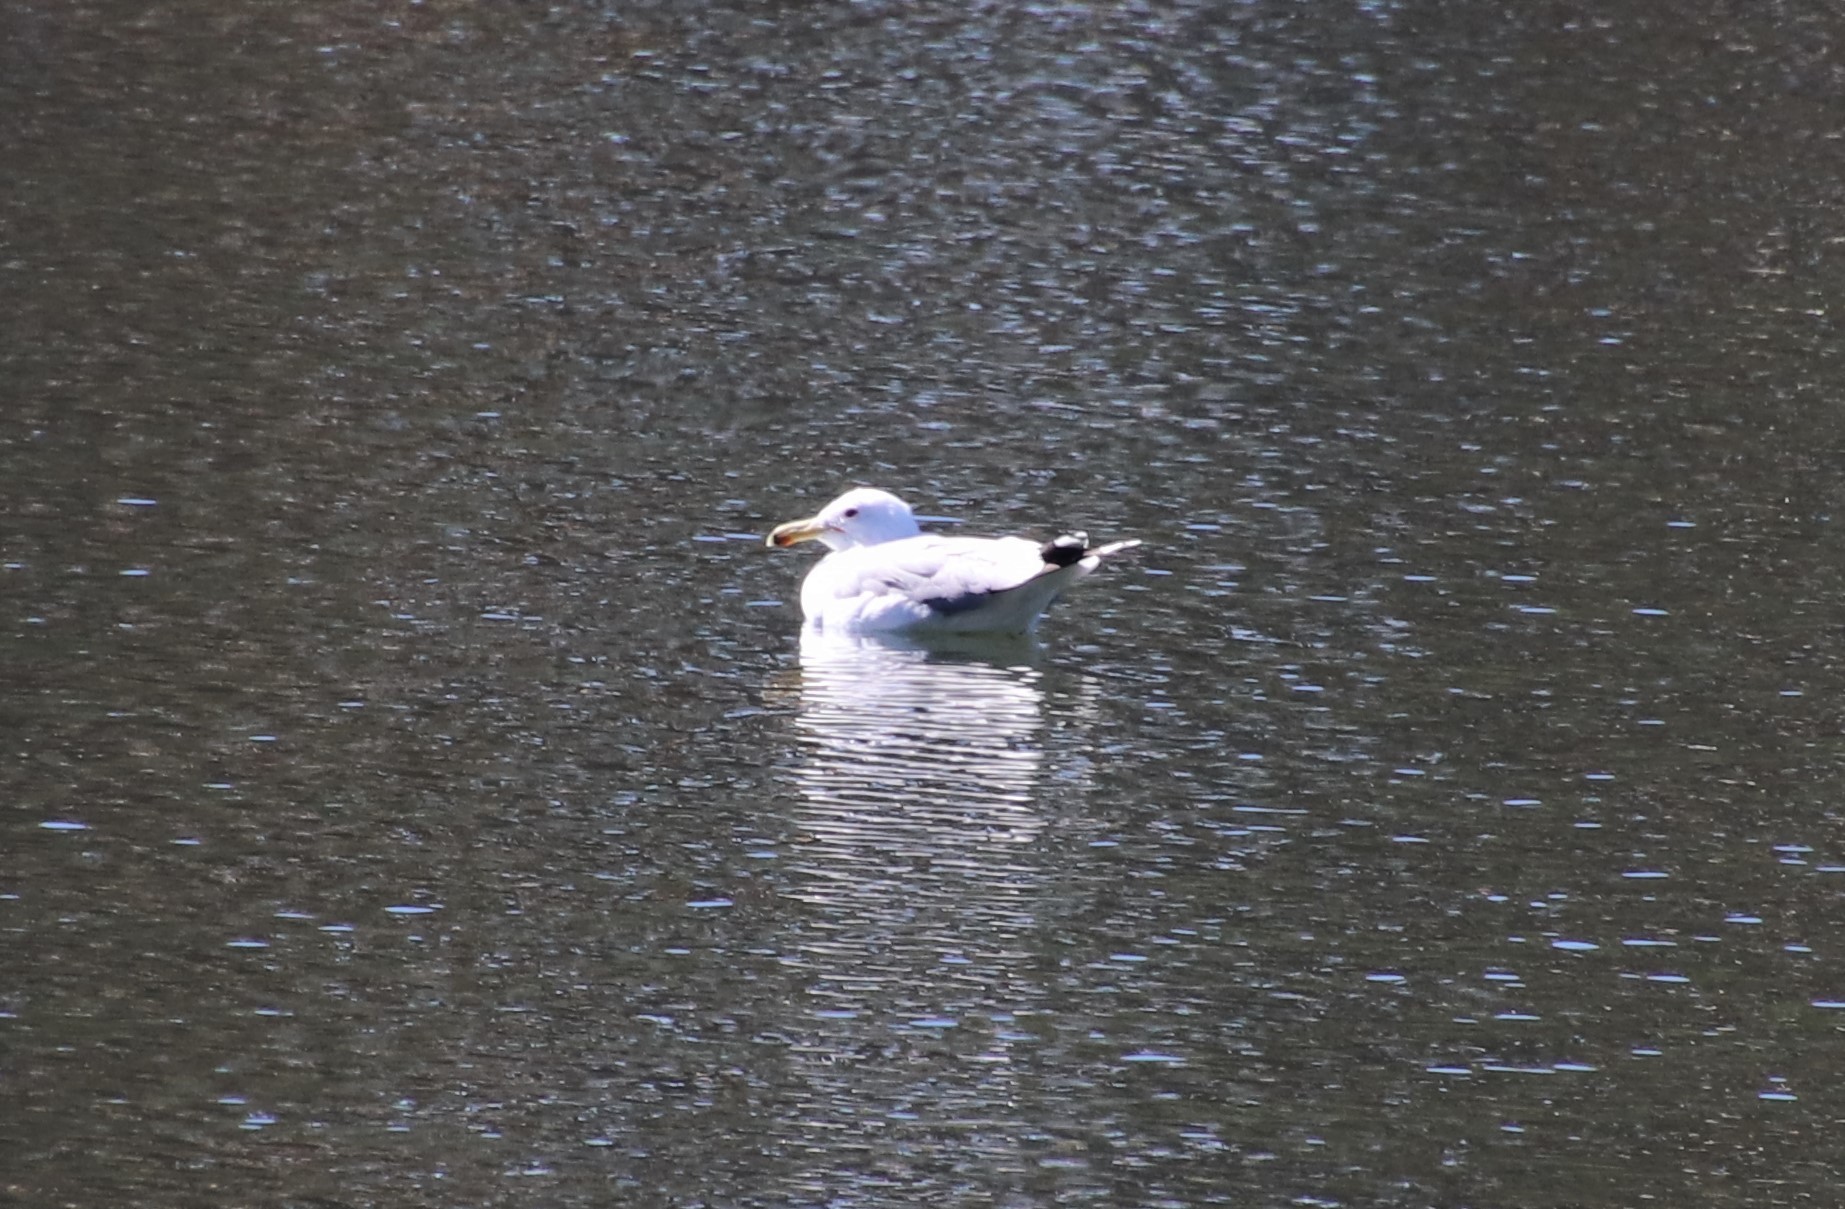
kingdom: Animalia
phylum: Chordata
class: Aves
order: Charadriiformes
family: Laridae
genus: Larus
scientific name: Larus californicus
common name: California gull
